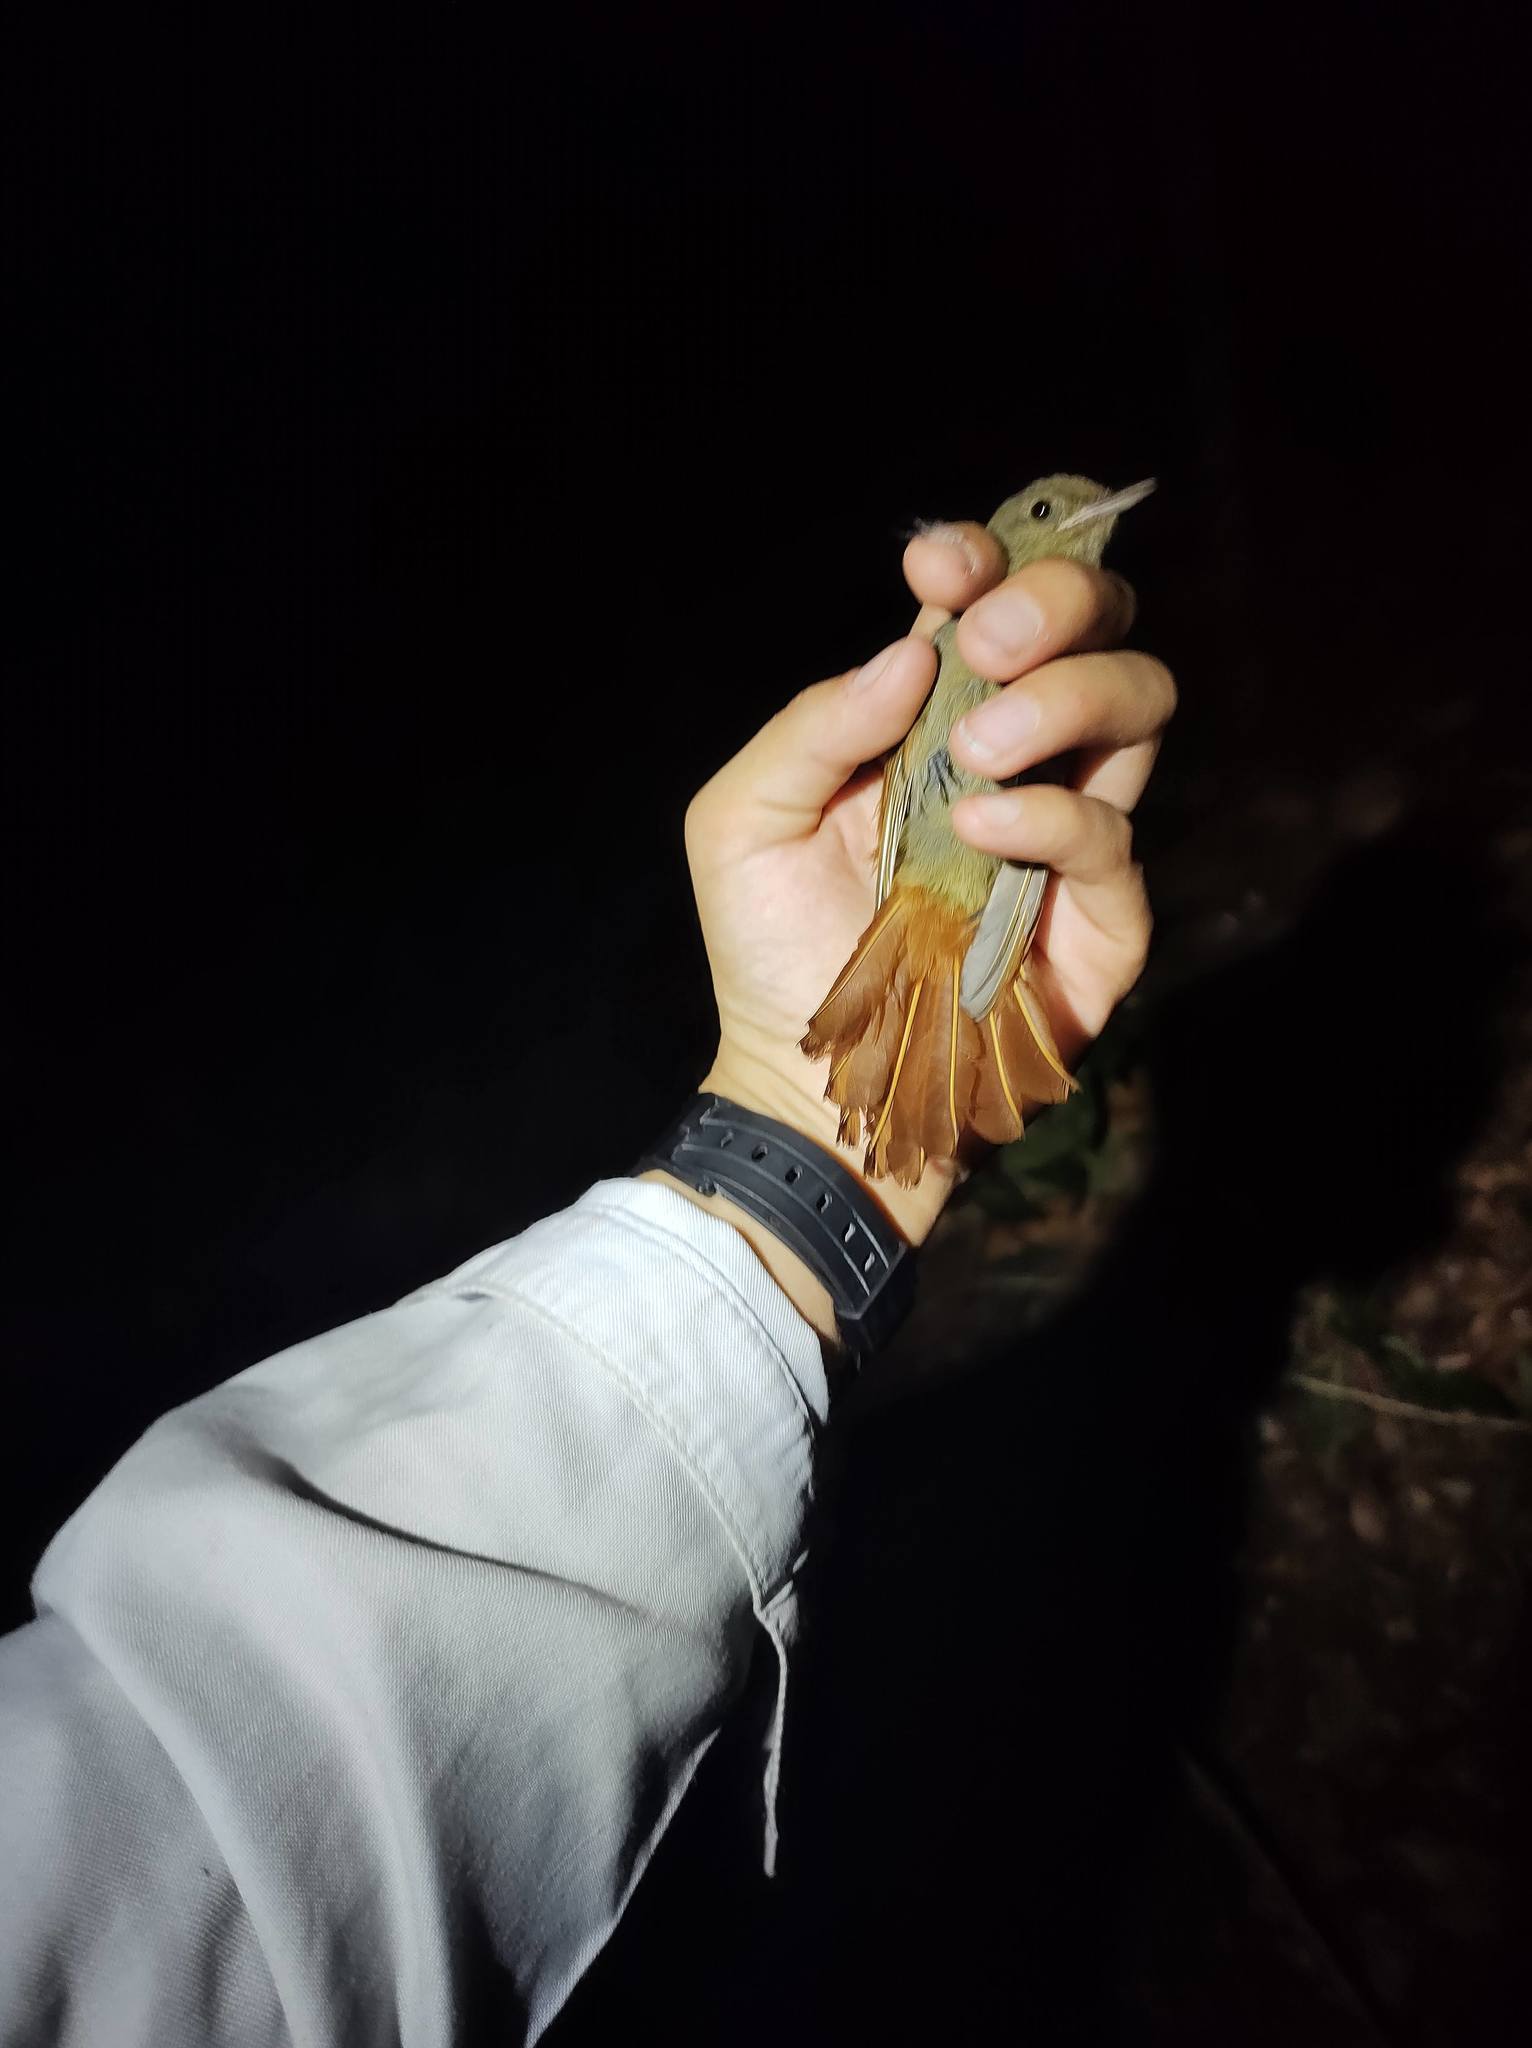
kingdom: Animalia
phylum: Chordata
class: Aves
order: Passeriformes
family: Furnariidae
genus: Sittasomus
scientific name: Sittasomus griseicapillus
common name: Olivaceous woodcreeper
